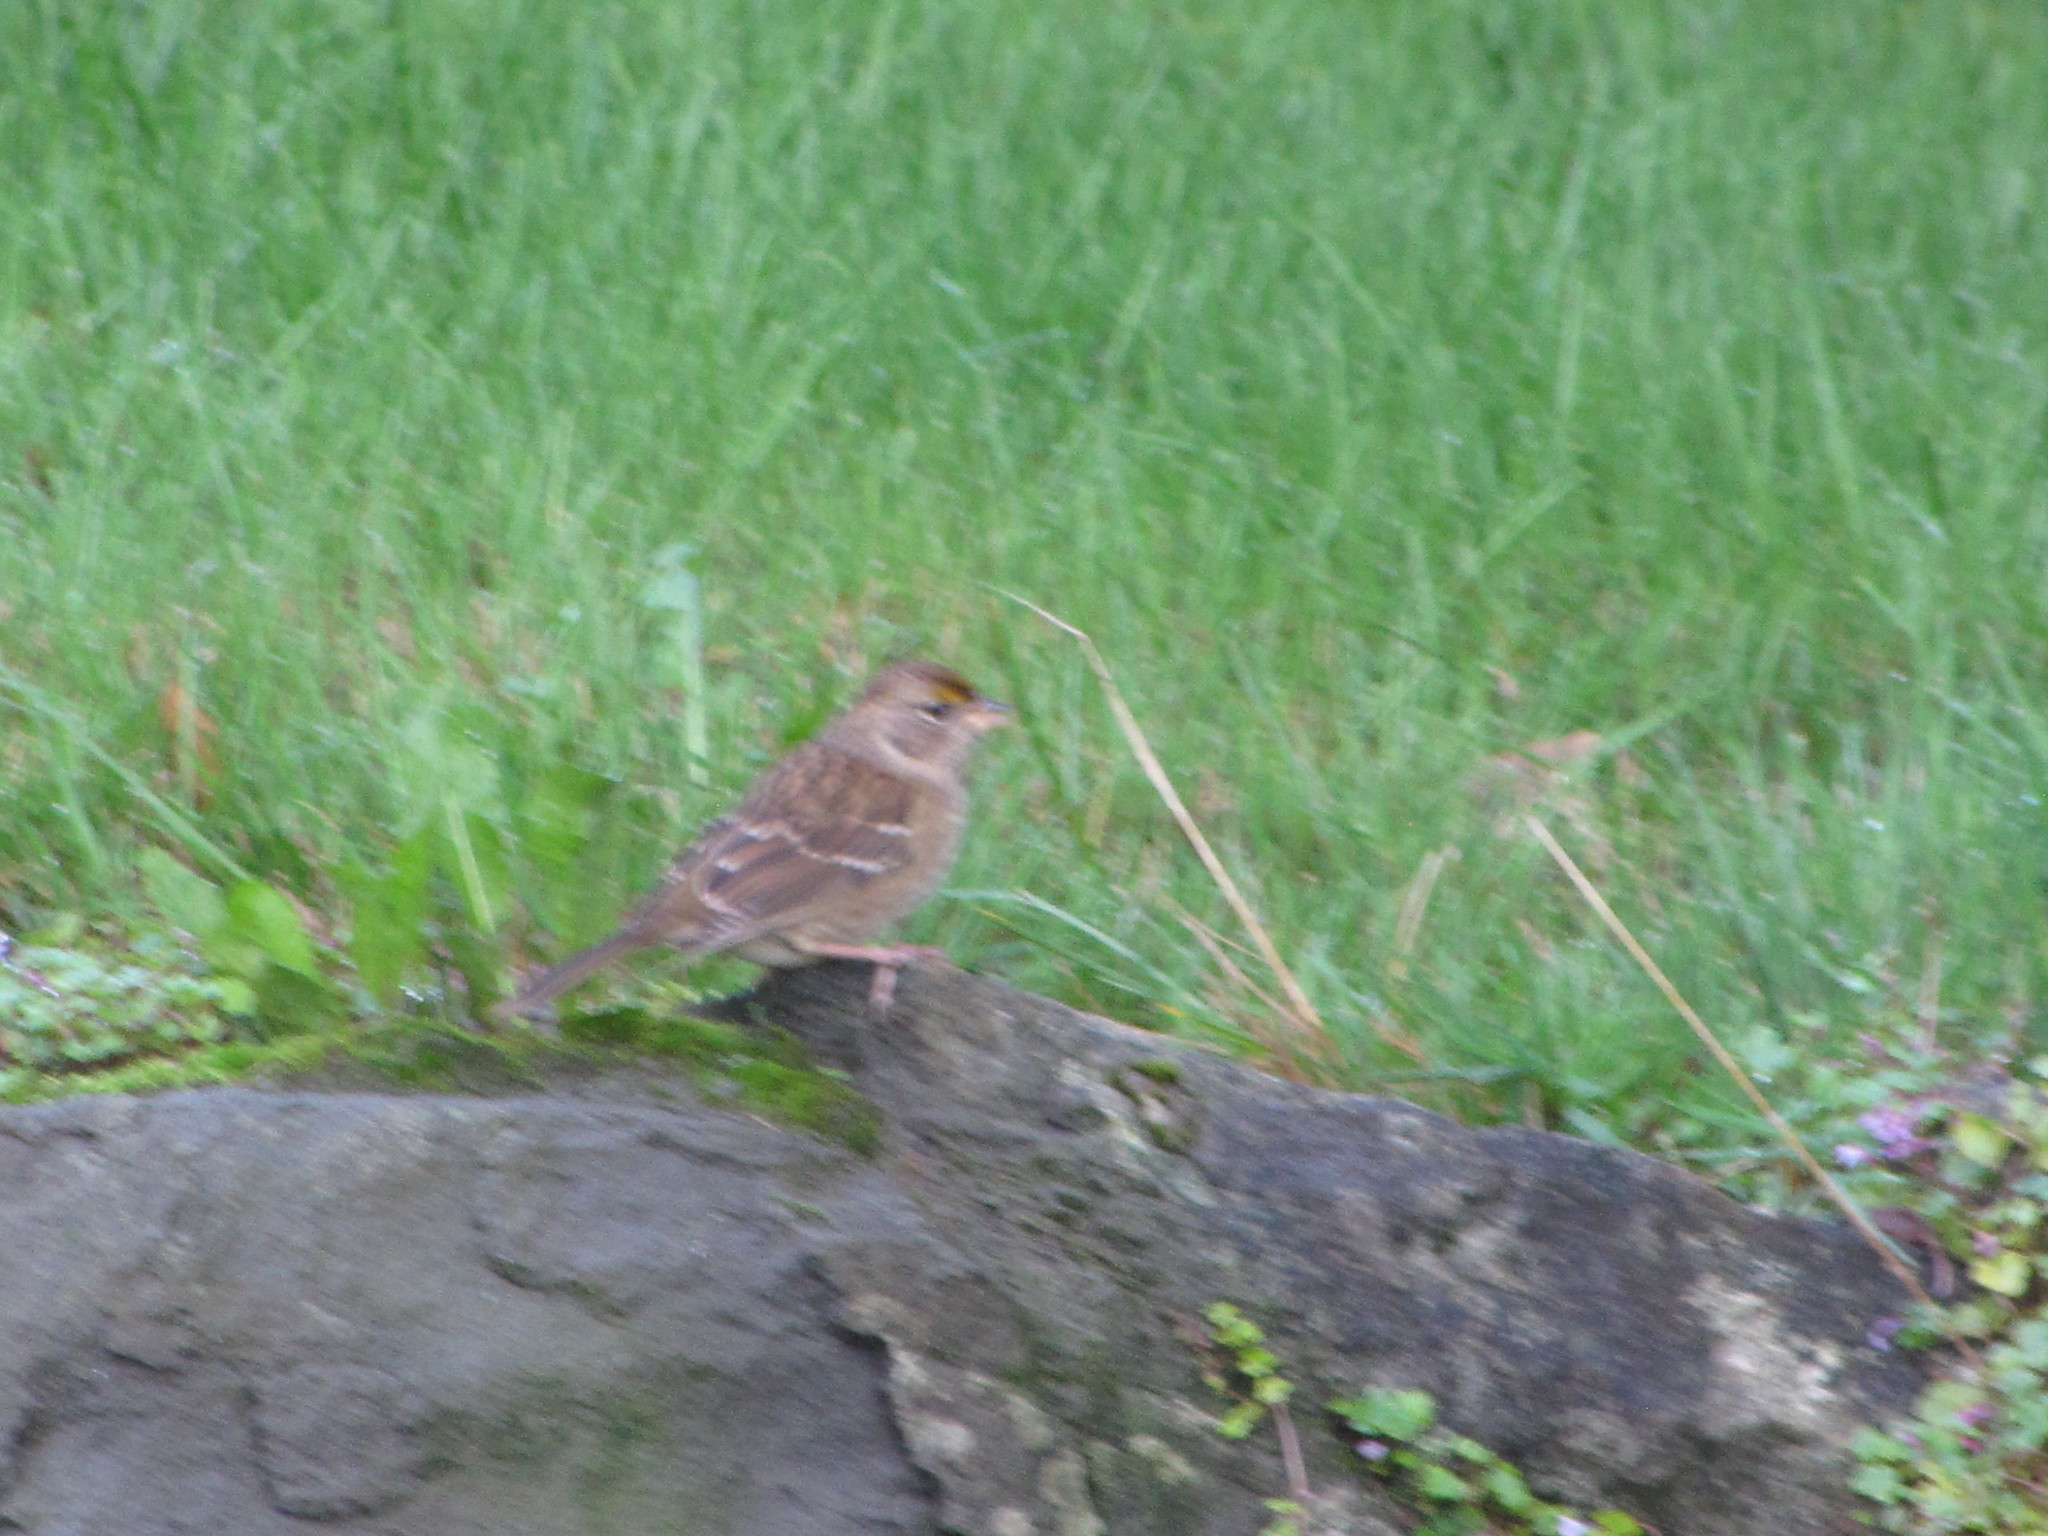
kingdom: Animalia
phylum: Chordata
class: Aves
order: Passeriformes
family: Passerellidae
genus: Zonotrichia
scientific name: Zonotrichia atricapilla
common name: Golden-crowned sparrow
